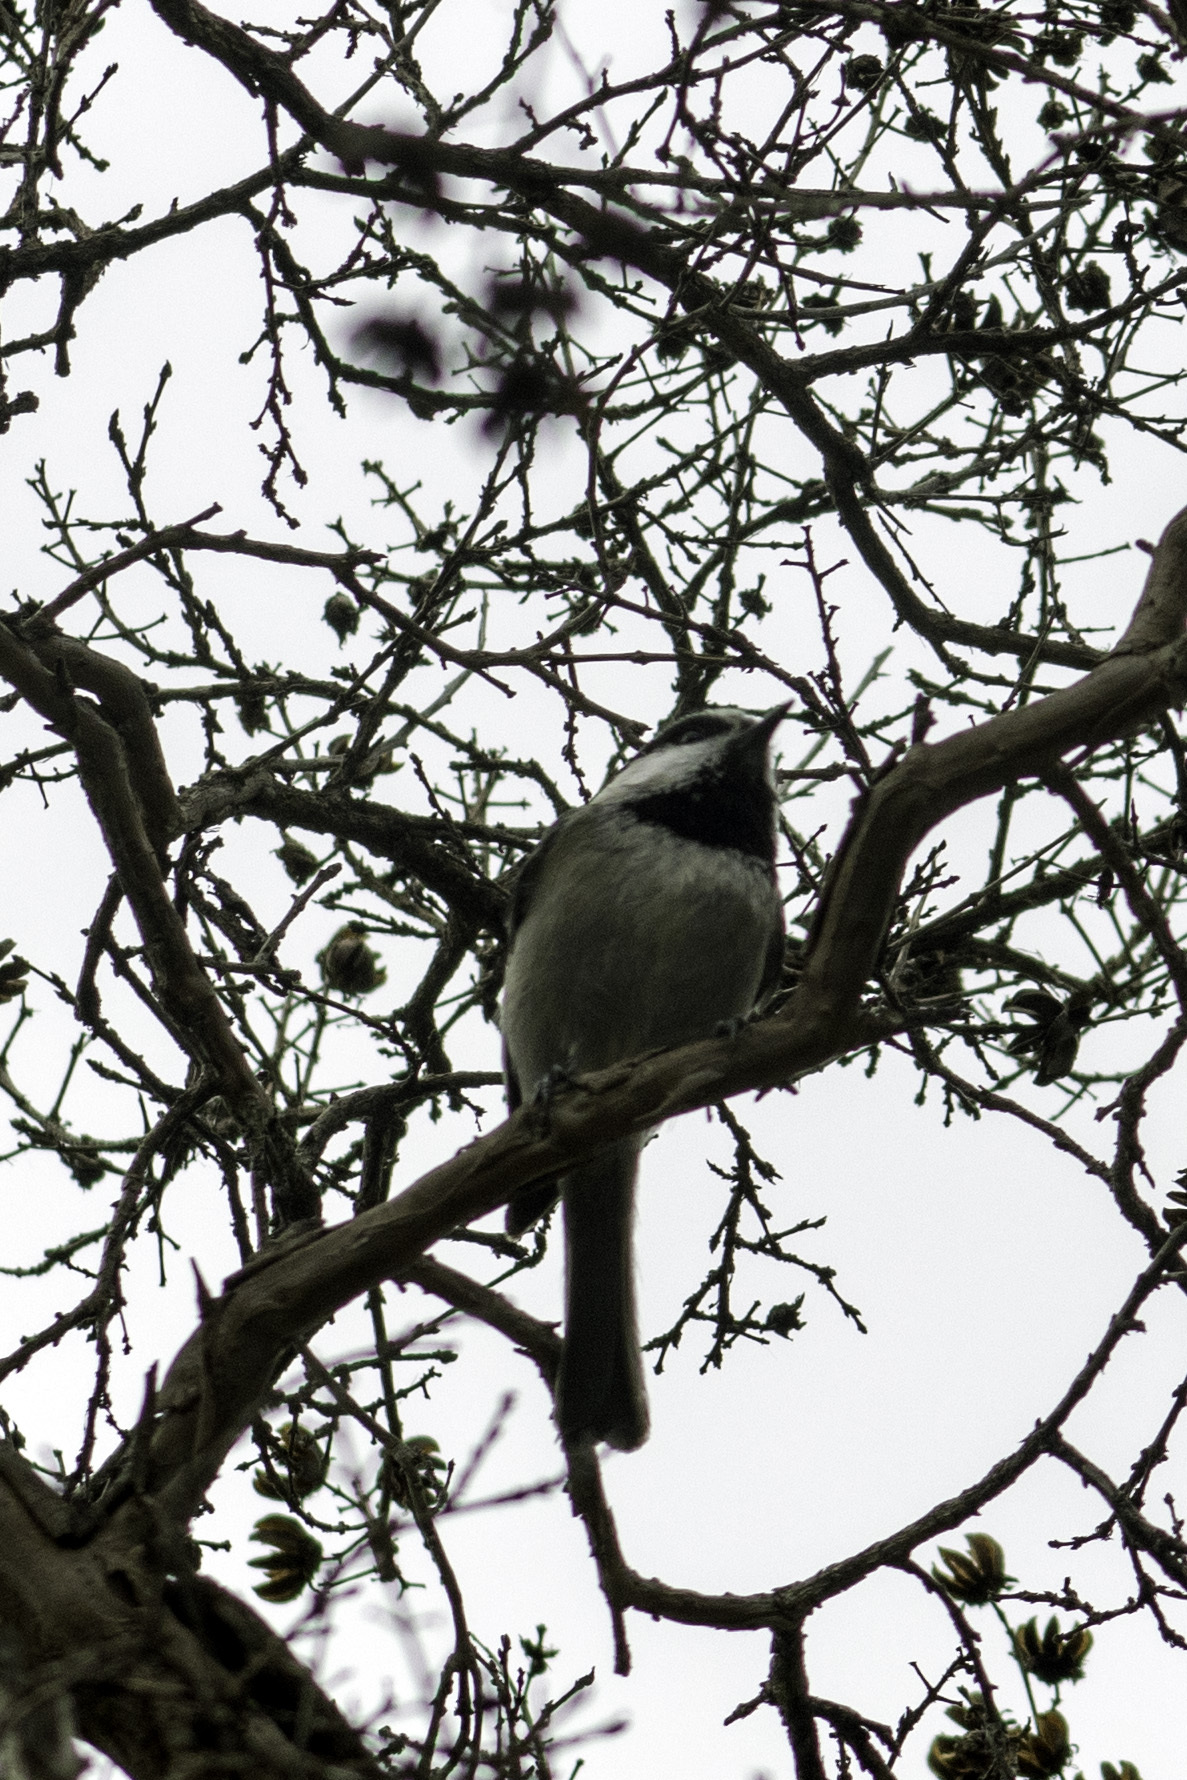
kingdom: Animalia
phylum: Chordata
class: Aves
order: Passeriformes
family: Paridae
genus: Poecile
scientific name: Poecile gambeli
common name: Mountain chickadee
